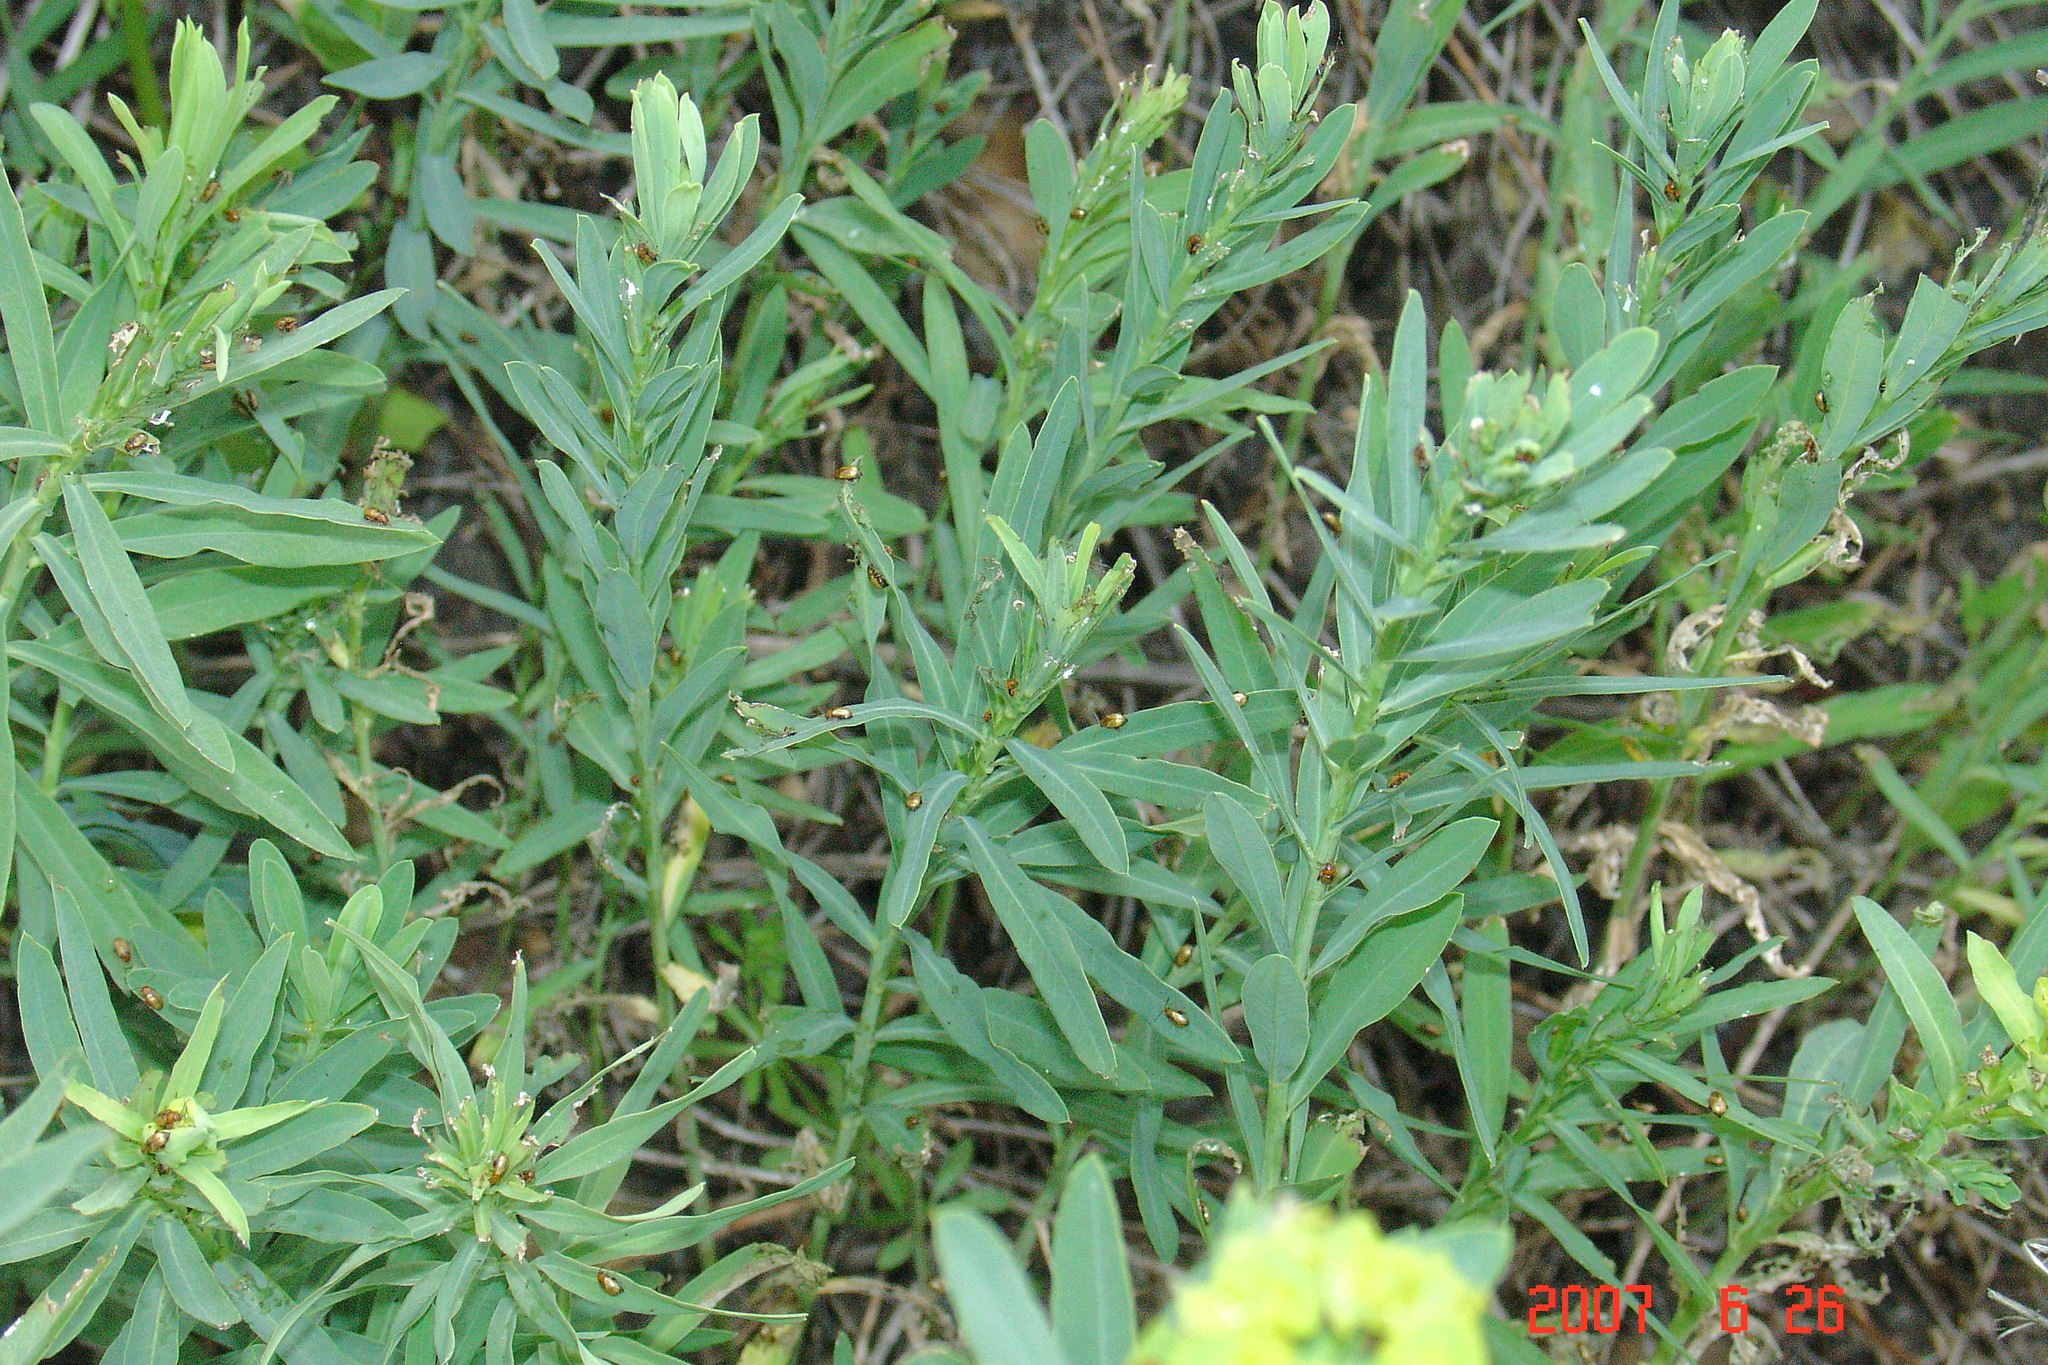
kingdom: Plantae
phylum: Tracheophyta
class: Magnoliopsida
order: Malpighiales
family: Euphorbiaceae
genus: Euphorbia
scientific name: Euphorbia virgata
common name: Leafy spurge
